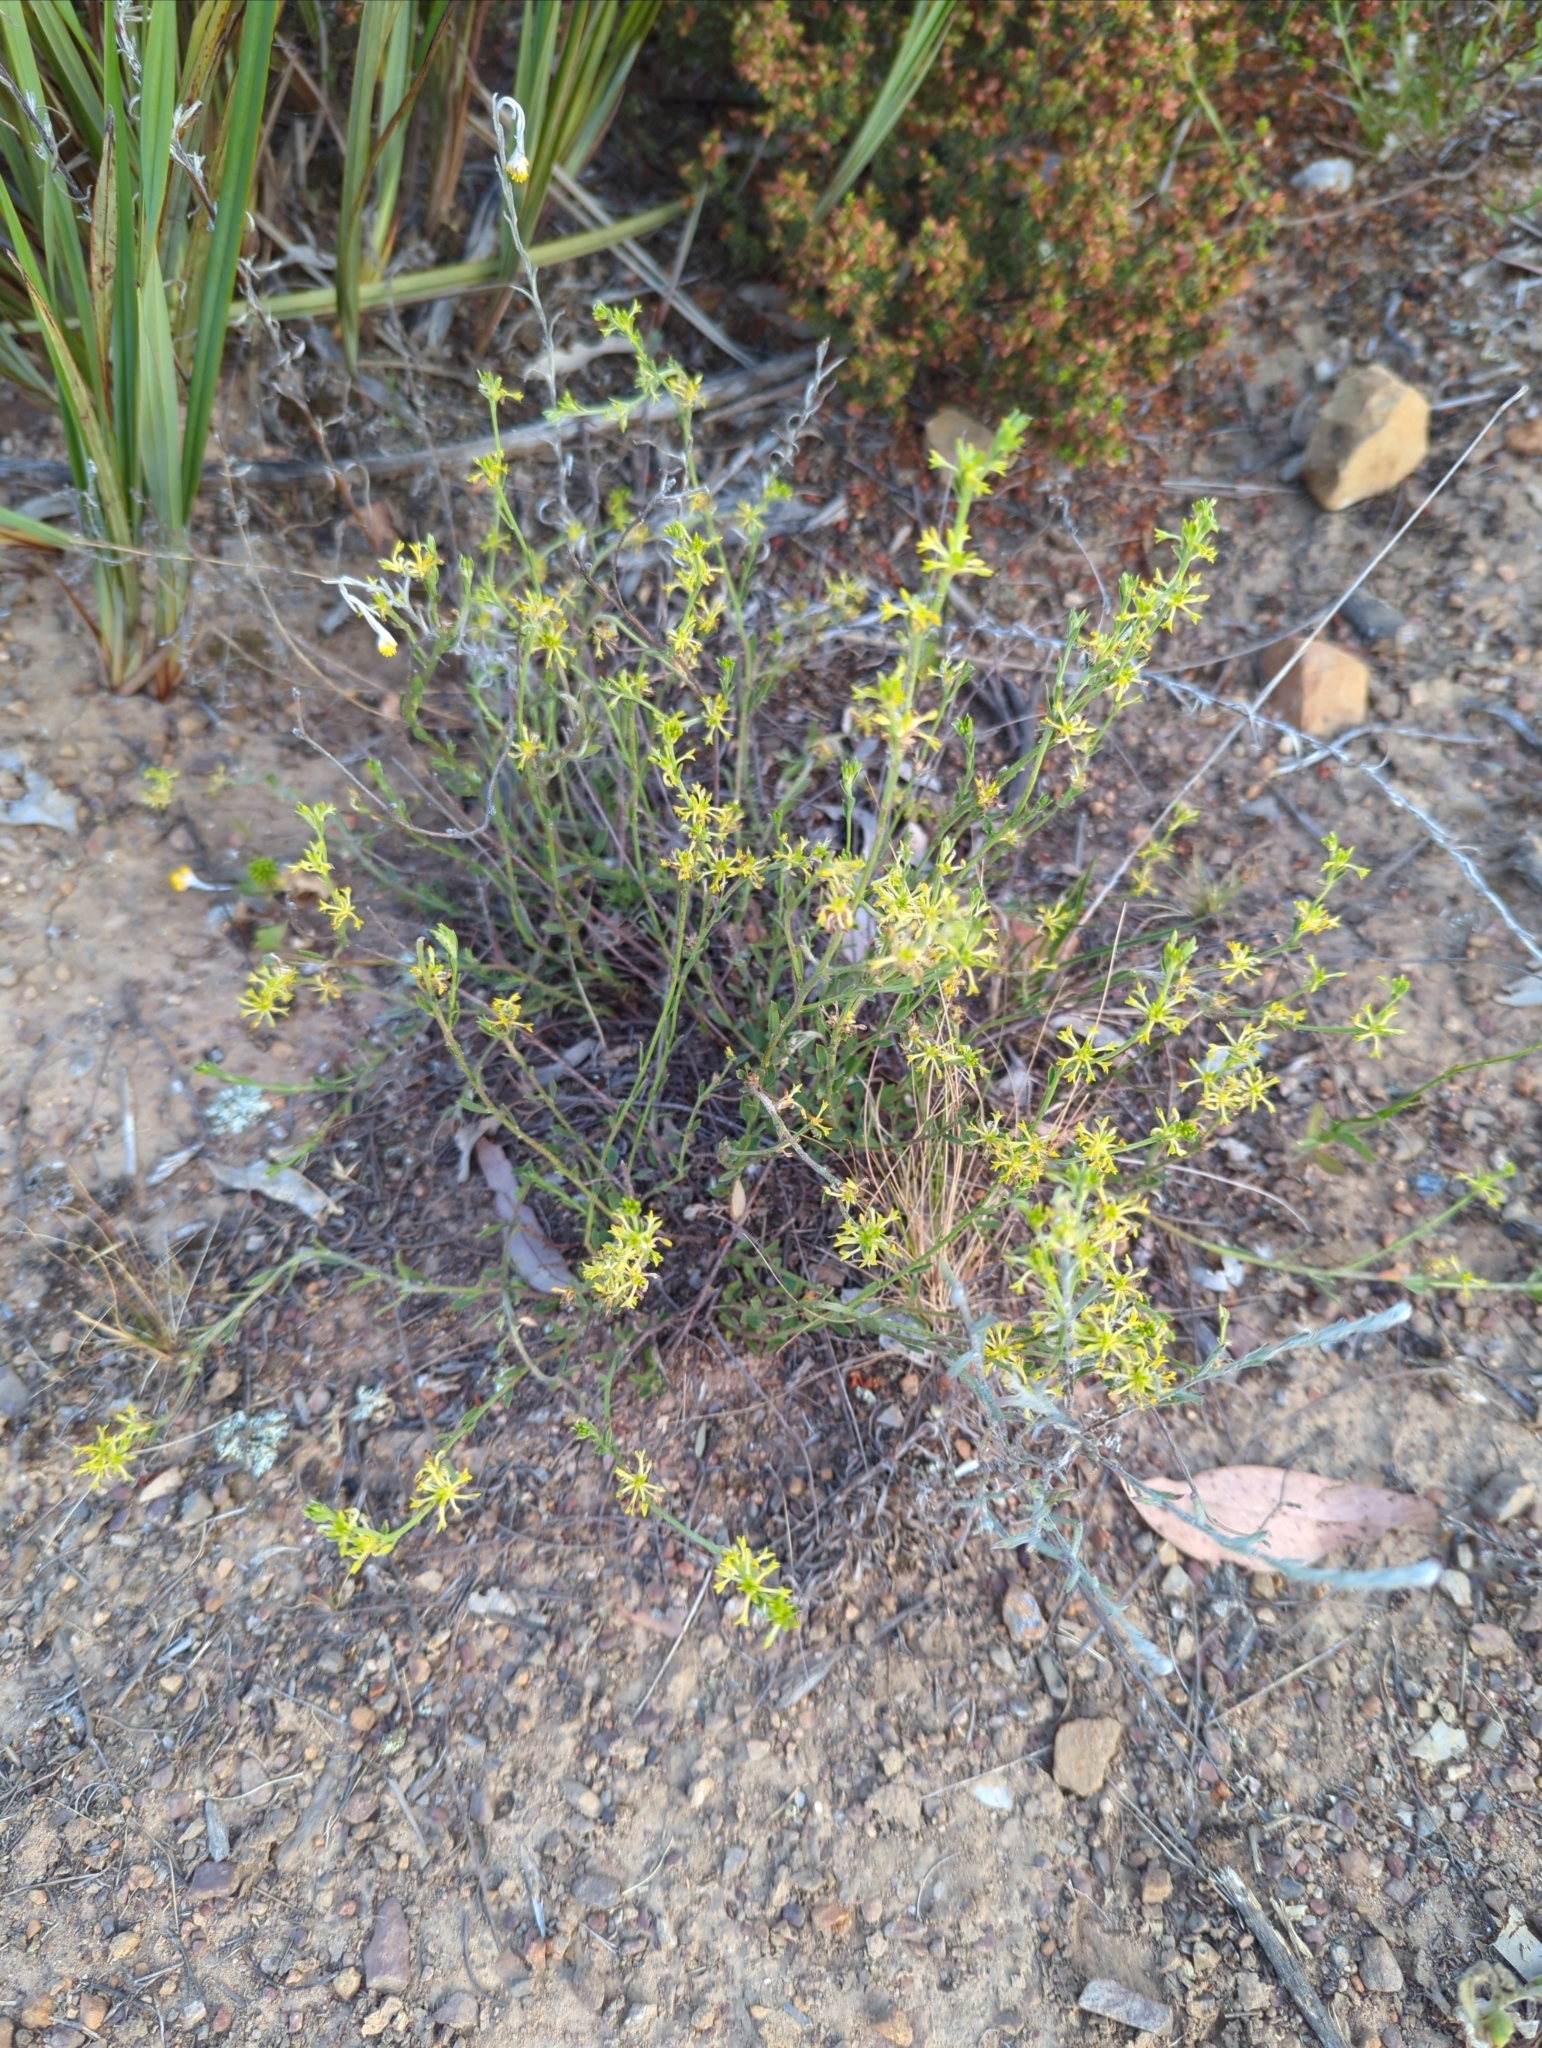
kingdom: Plantae
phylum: Tracheophyta
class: Magnoliopsida
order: Malvales
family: Thymelaeaceae
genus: Pimelea
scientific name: Pimelea curviflora
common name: Curved riceflower
